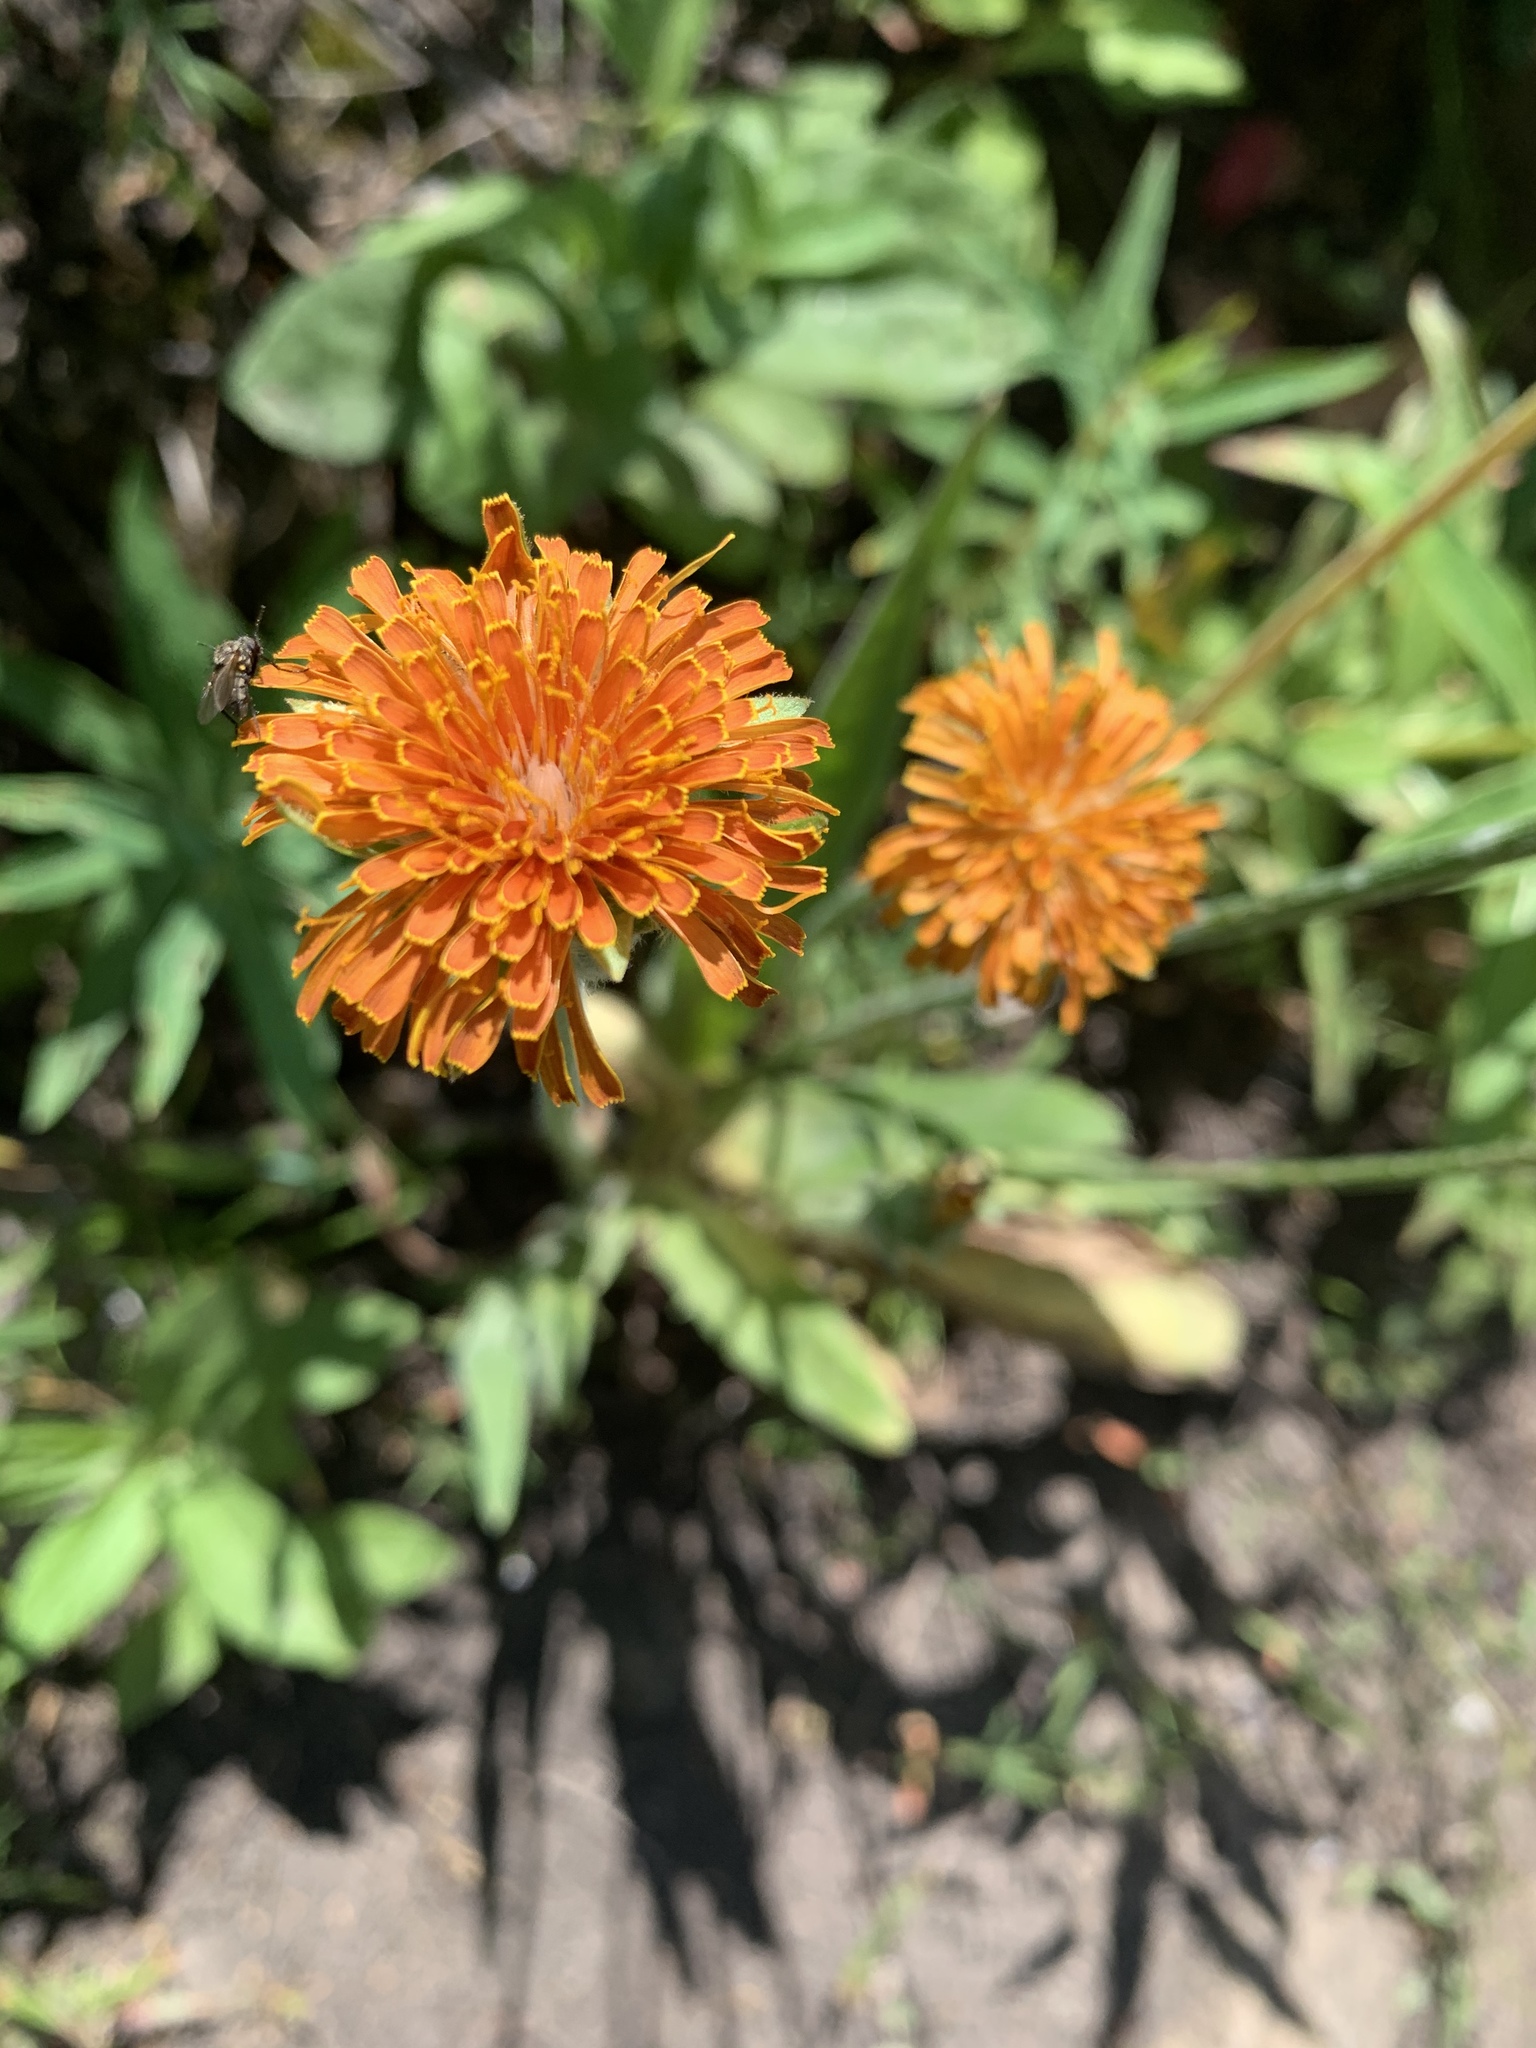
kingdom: Plantae
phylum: Tracheophyta
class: Magnoliopsida
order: Asterales
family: Asteraceae
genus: Agoseris
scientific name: Agoseris aurantiaca
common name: Mountain agoseris
